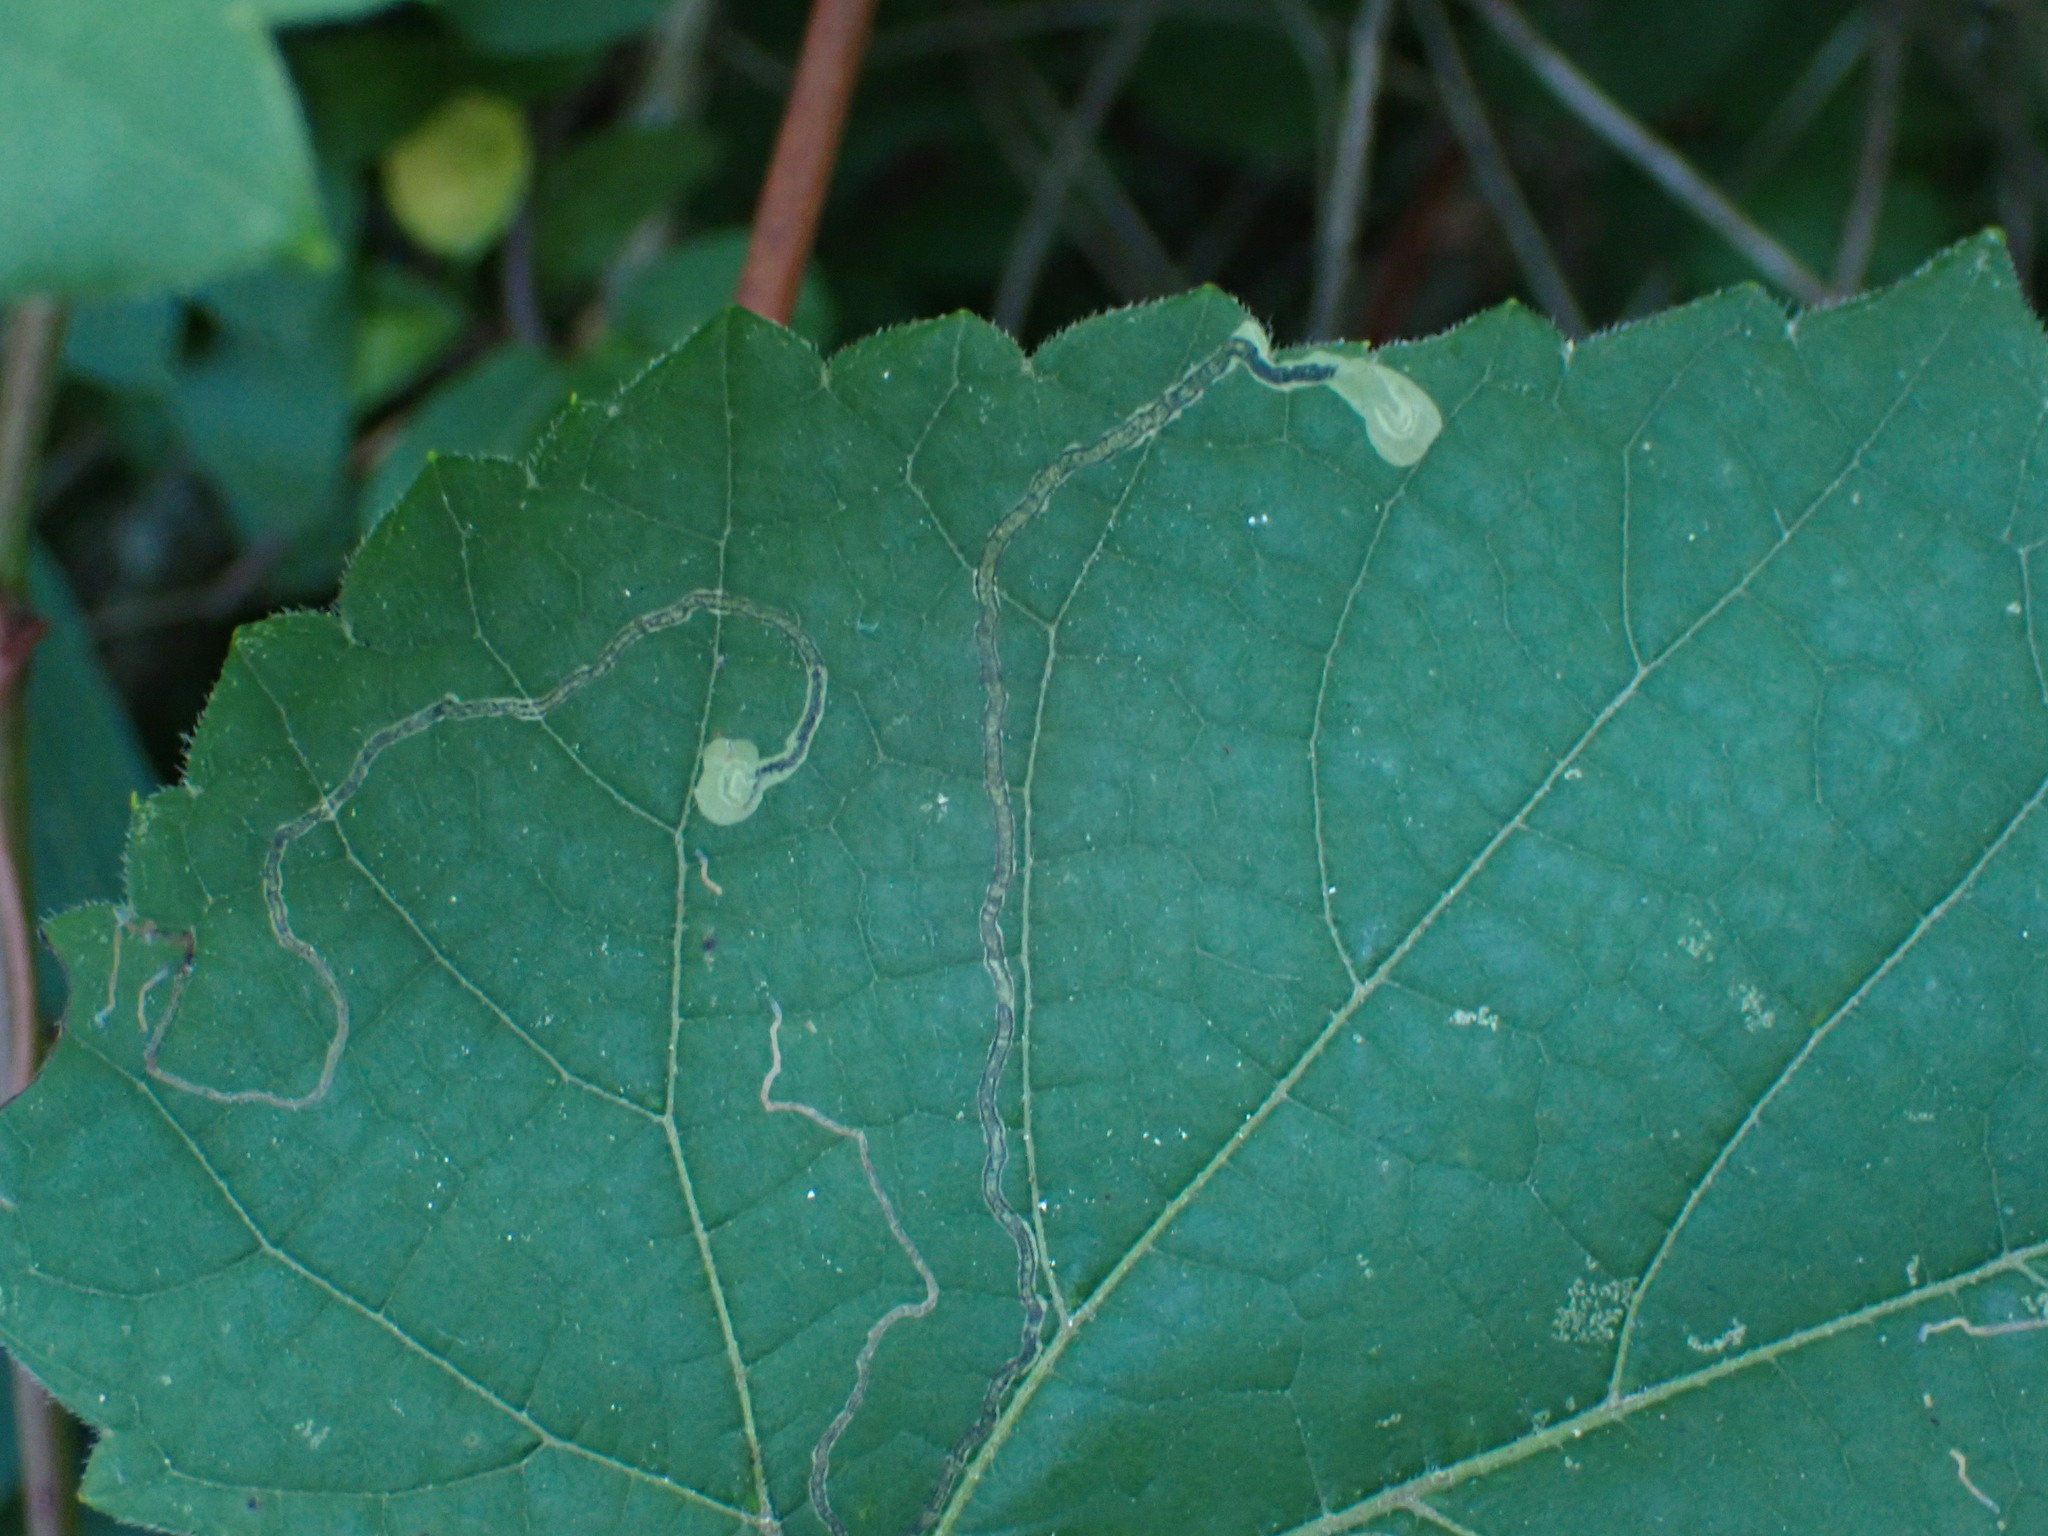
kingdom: Animalia
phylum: Arthropoda
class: Insecta
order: Lepidoptera
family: Gracillariidae
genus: Phyllocnistis
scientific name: Phyllocnistis vitifoliella
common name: Grape leaf-miner moth
